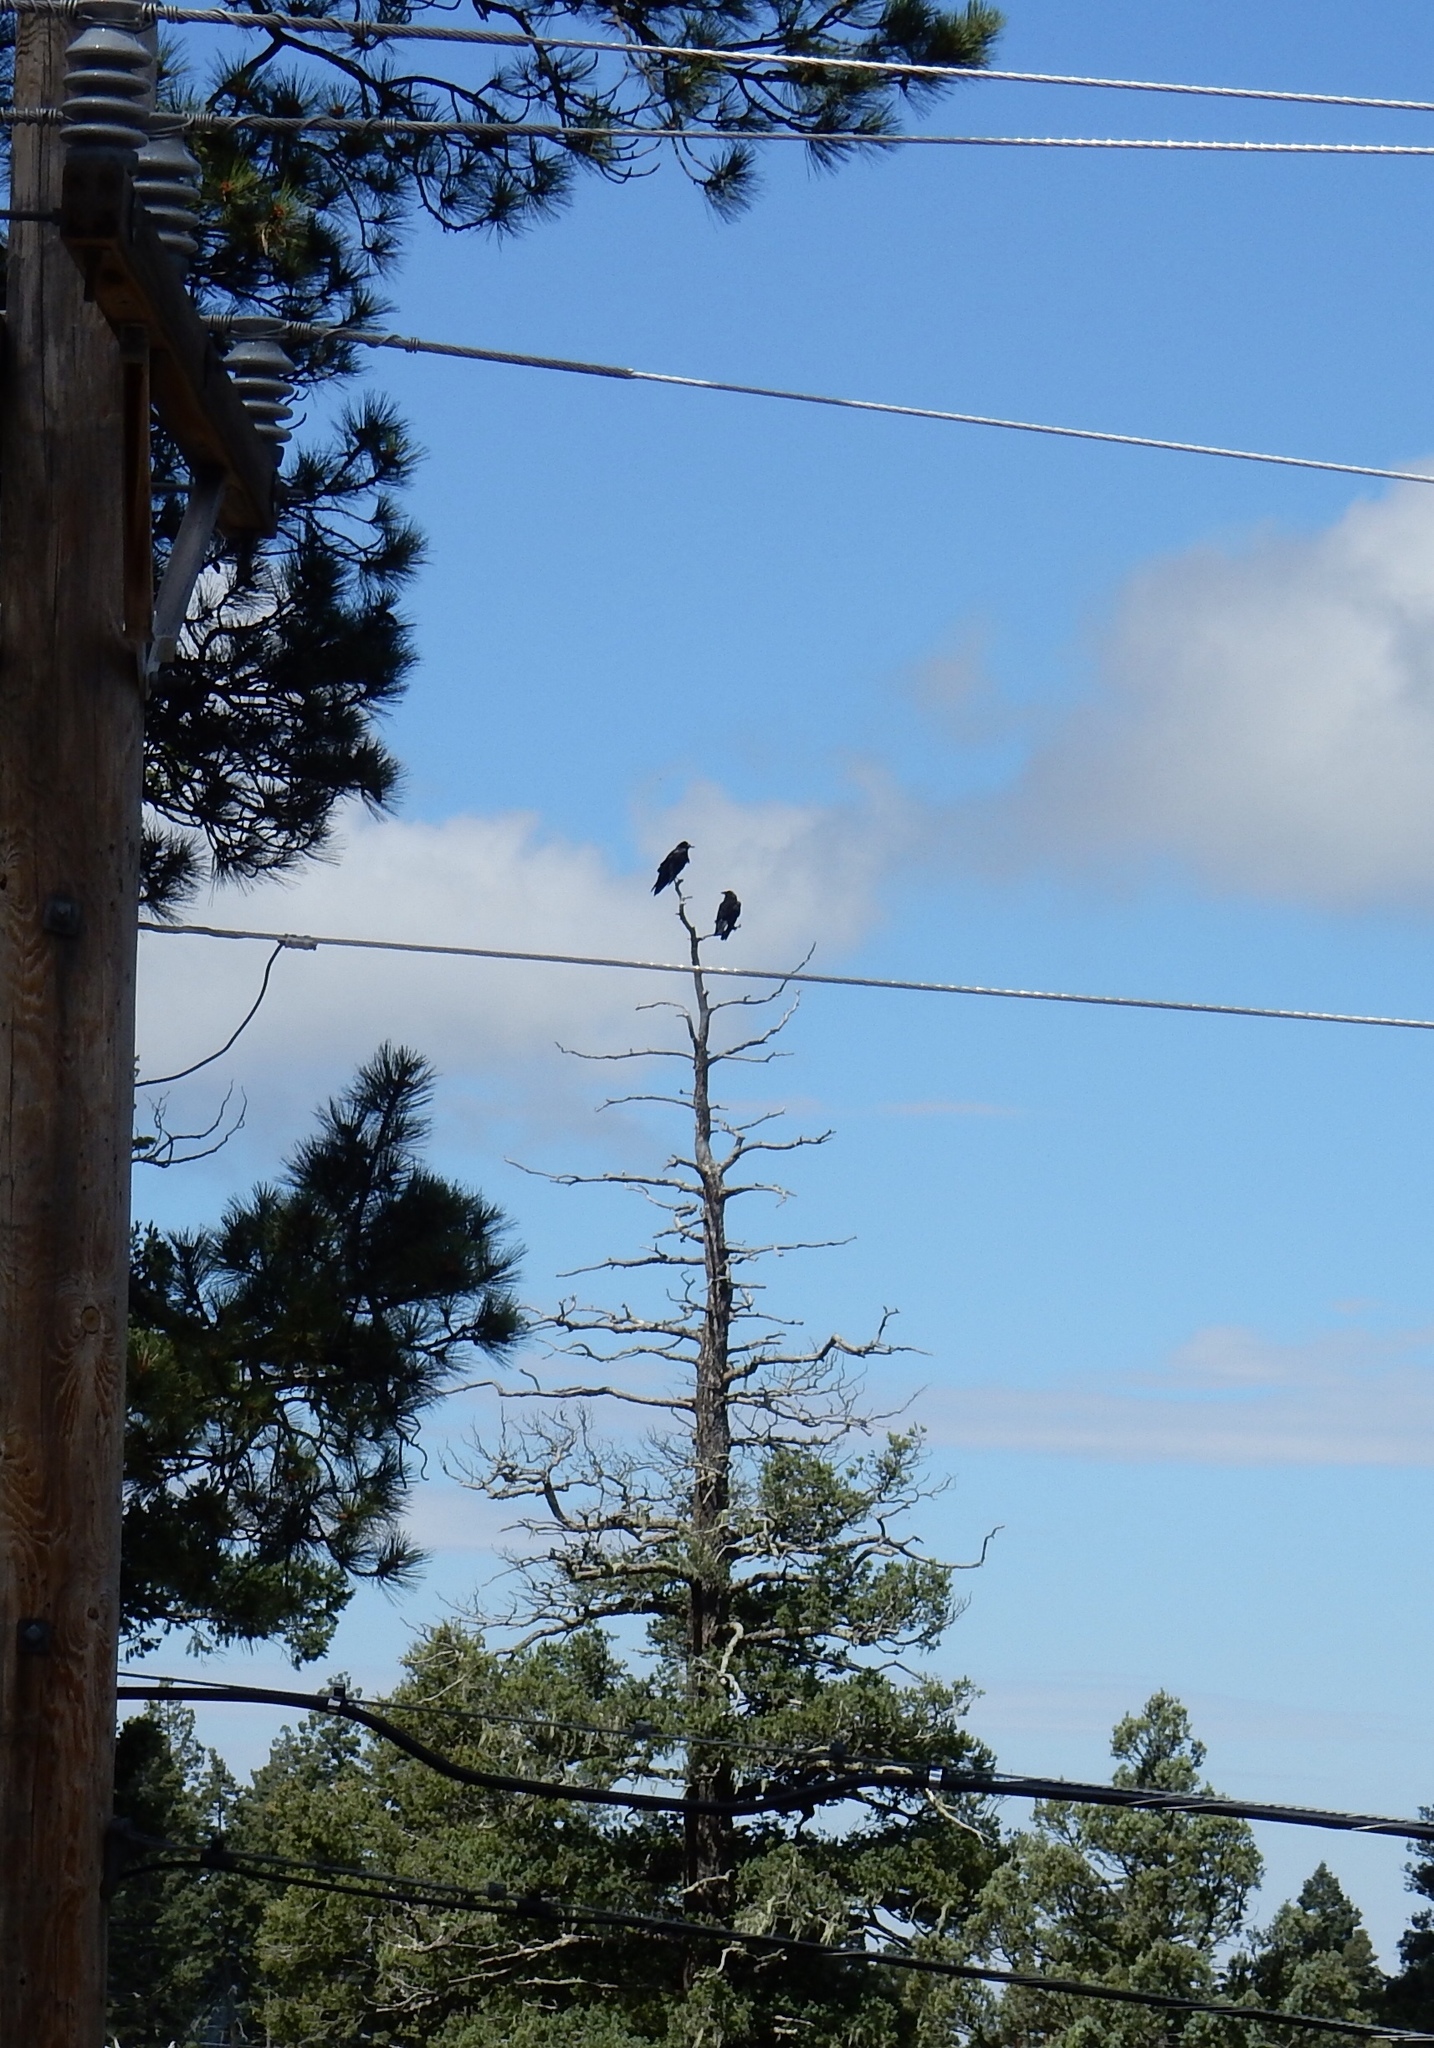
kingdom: Animalia
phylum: Chordata
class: Aves
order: Passeriformes
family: Corvidae
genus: Corvus
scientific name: Corvus corax
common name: Common raven
